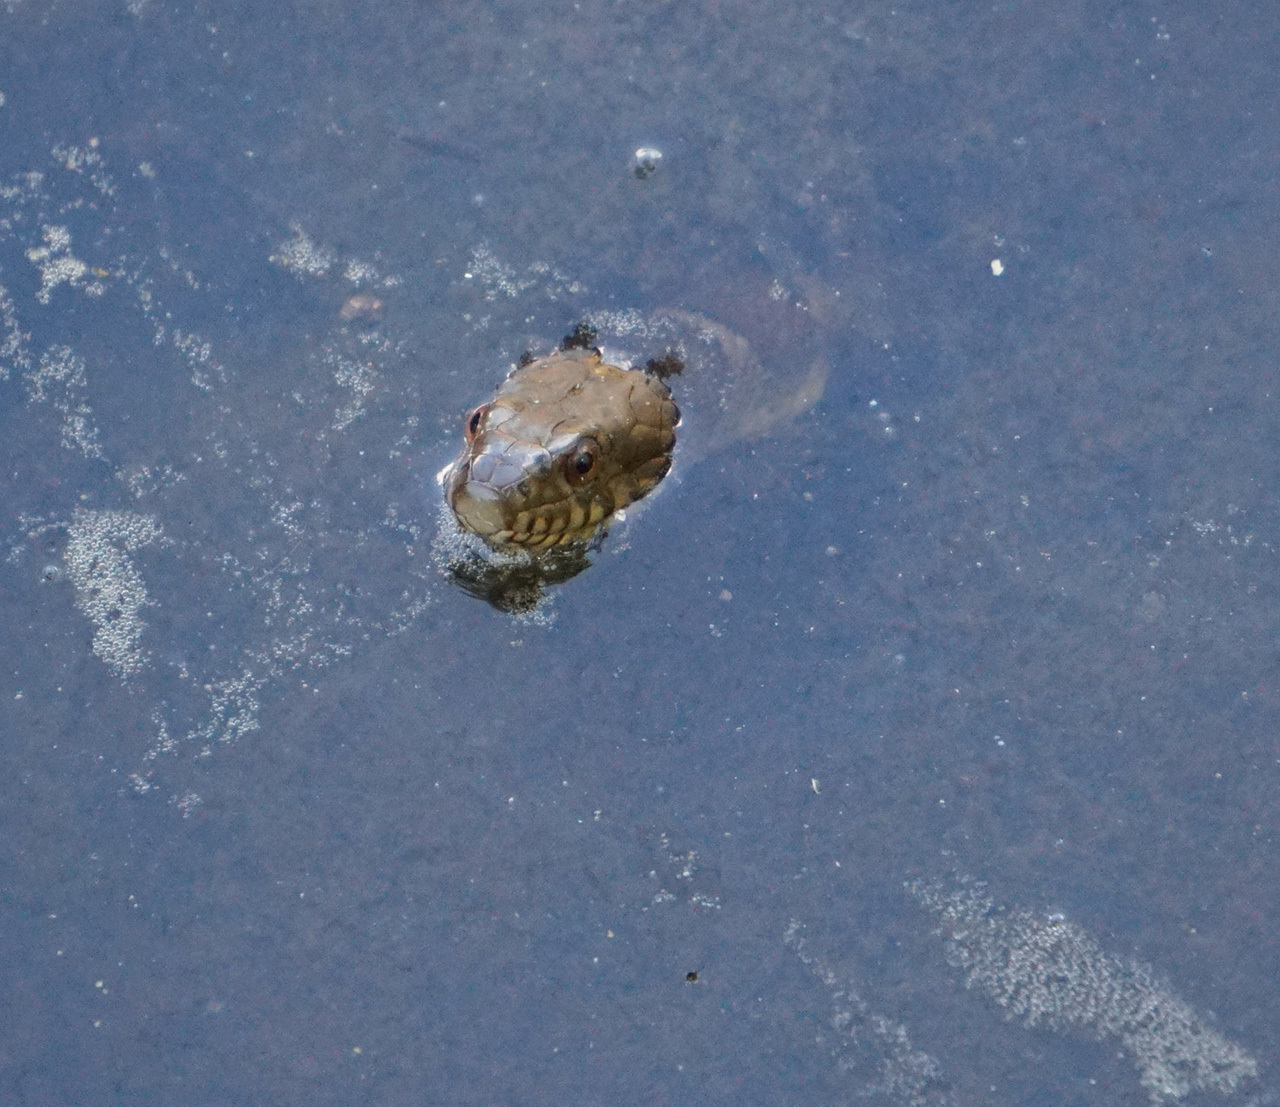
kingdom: Animalia
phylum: Chordata
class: Squamata
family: Colubridae
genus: Nerodia
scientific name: Nerodia sipedon
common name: Northern water snake
